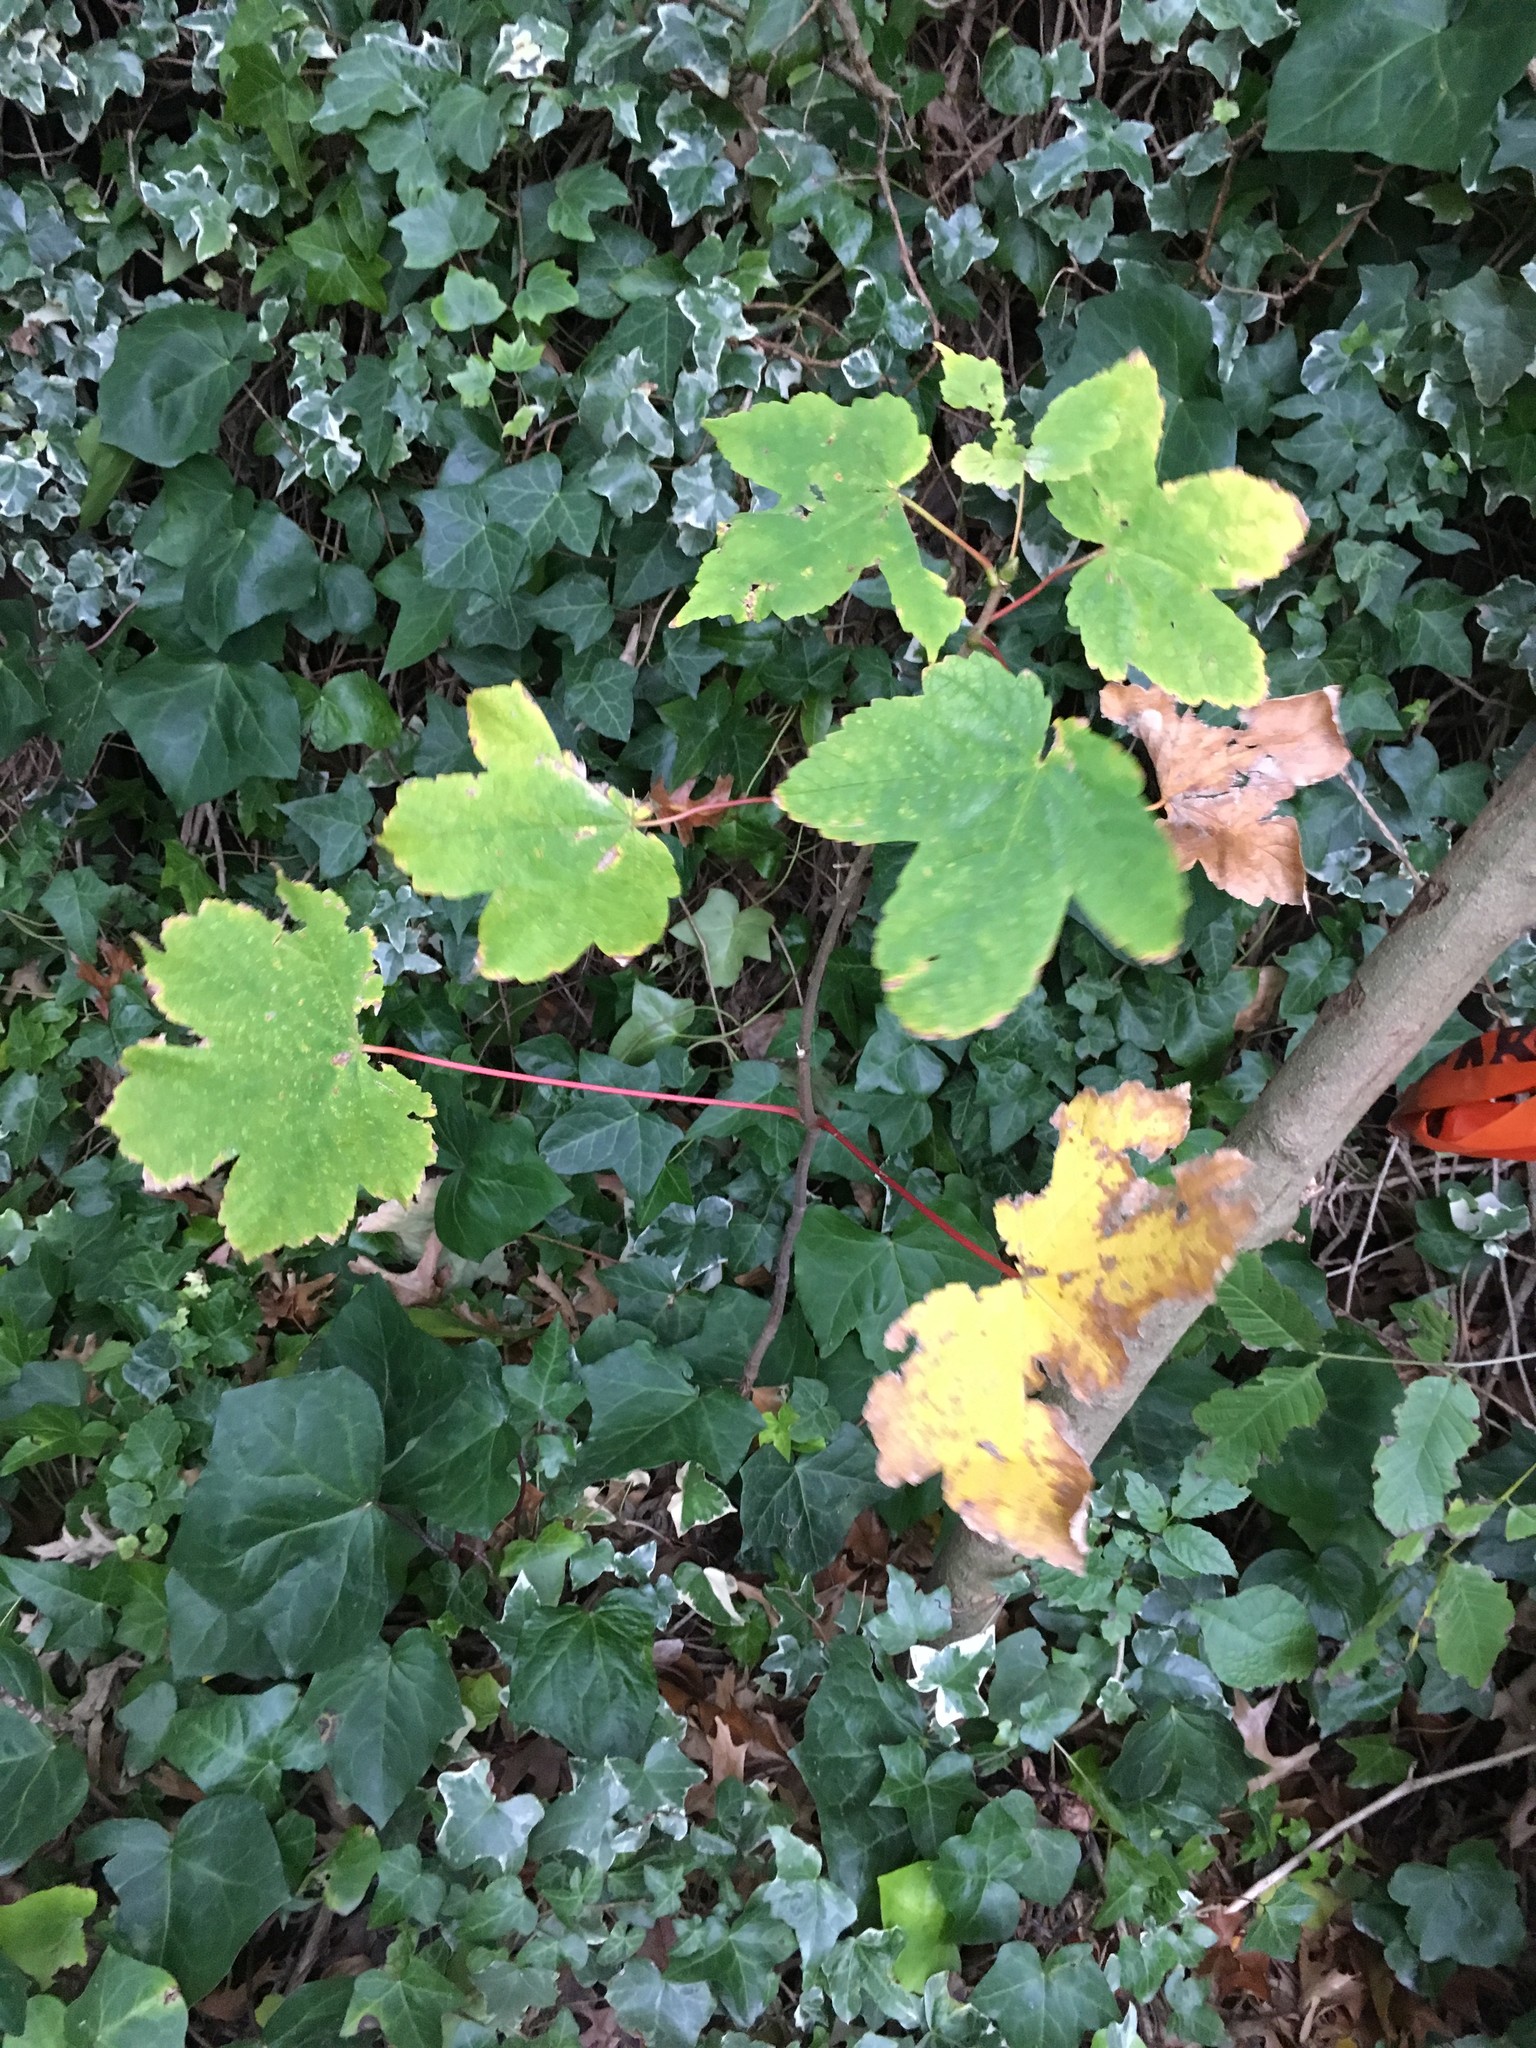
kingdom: Plantae
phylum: Tracheophyta
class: Magnoliopsida
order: Sapindales
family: Sapindaceae
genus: Acer
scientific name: Acer pseudoplatanus
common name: Sycamore
